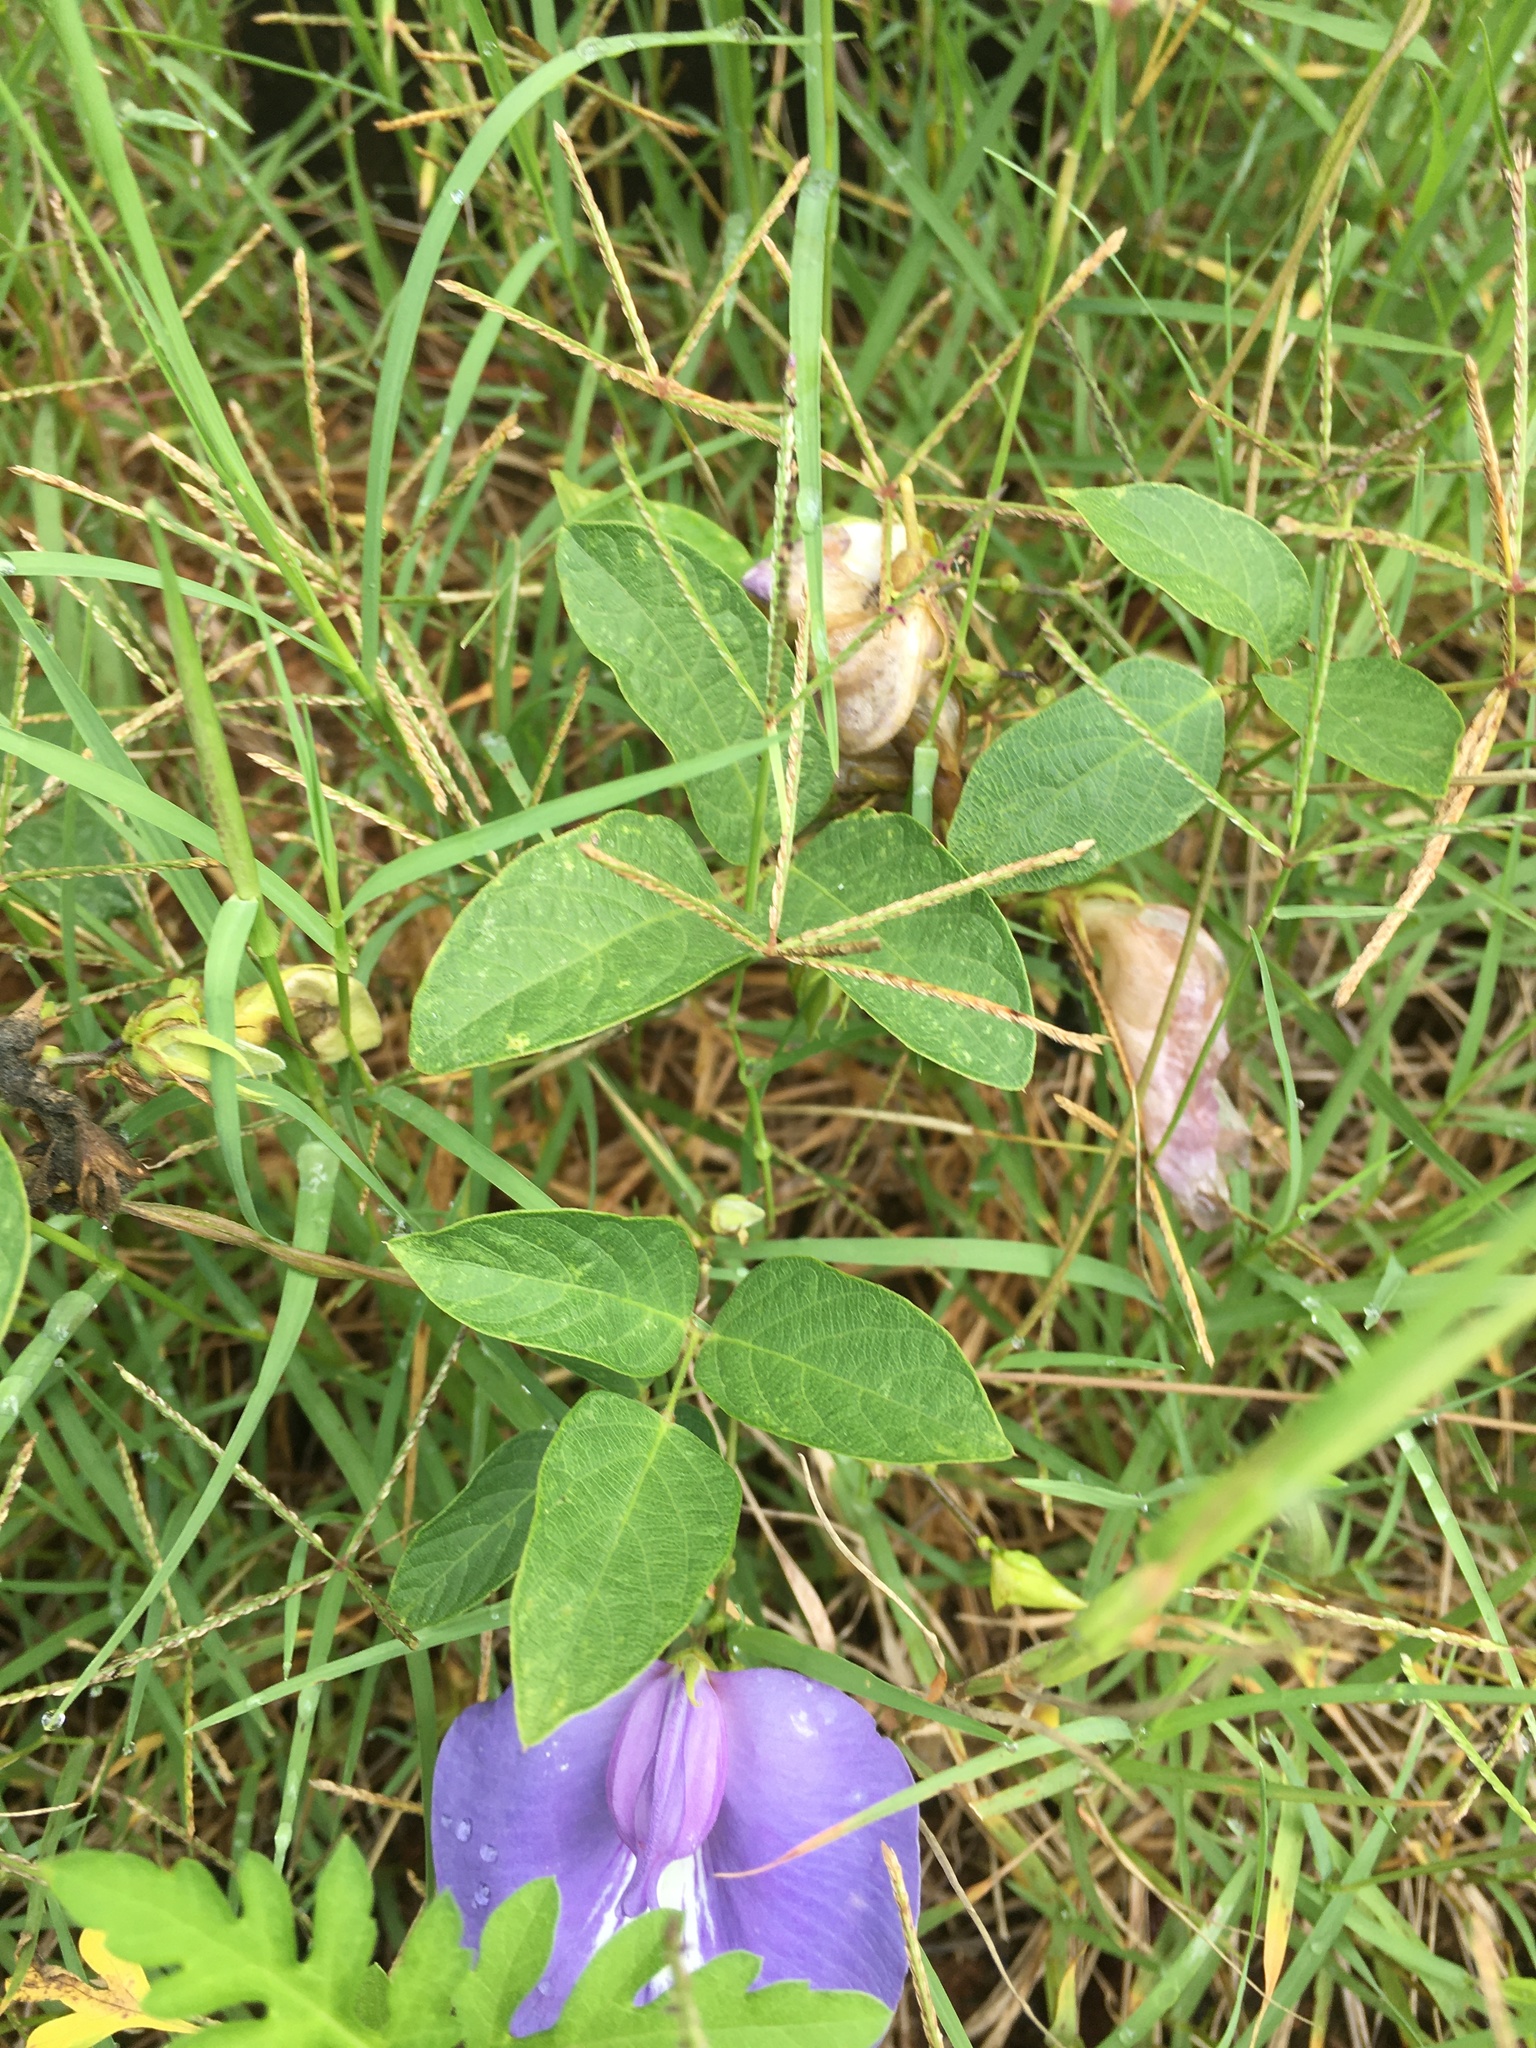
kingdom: Plantae
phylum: Tracheophyta
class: Magnoliopsida
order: Fabales
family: Fabaceae
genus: Centrosema
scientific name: Centrosema virginianum
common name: Butterfly-pea
